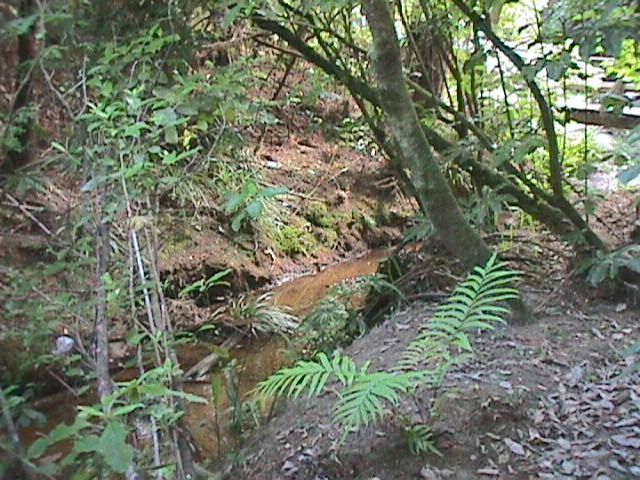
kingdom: Plantae
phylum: Tracheophyta
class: Magnoliopsida
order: Gentianales
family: Rubiaceae
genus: Coprosma
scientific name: Coprosma autumnalis
